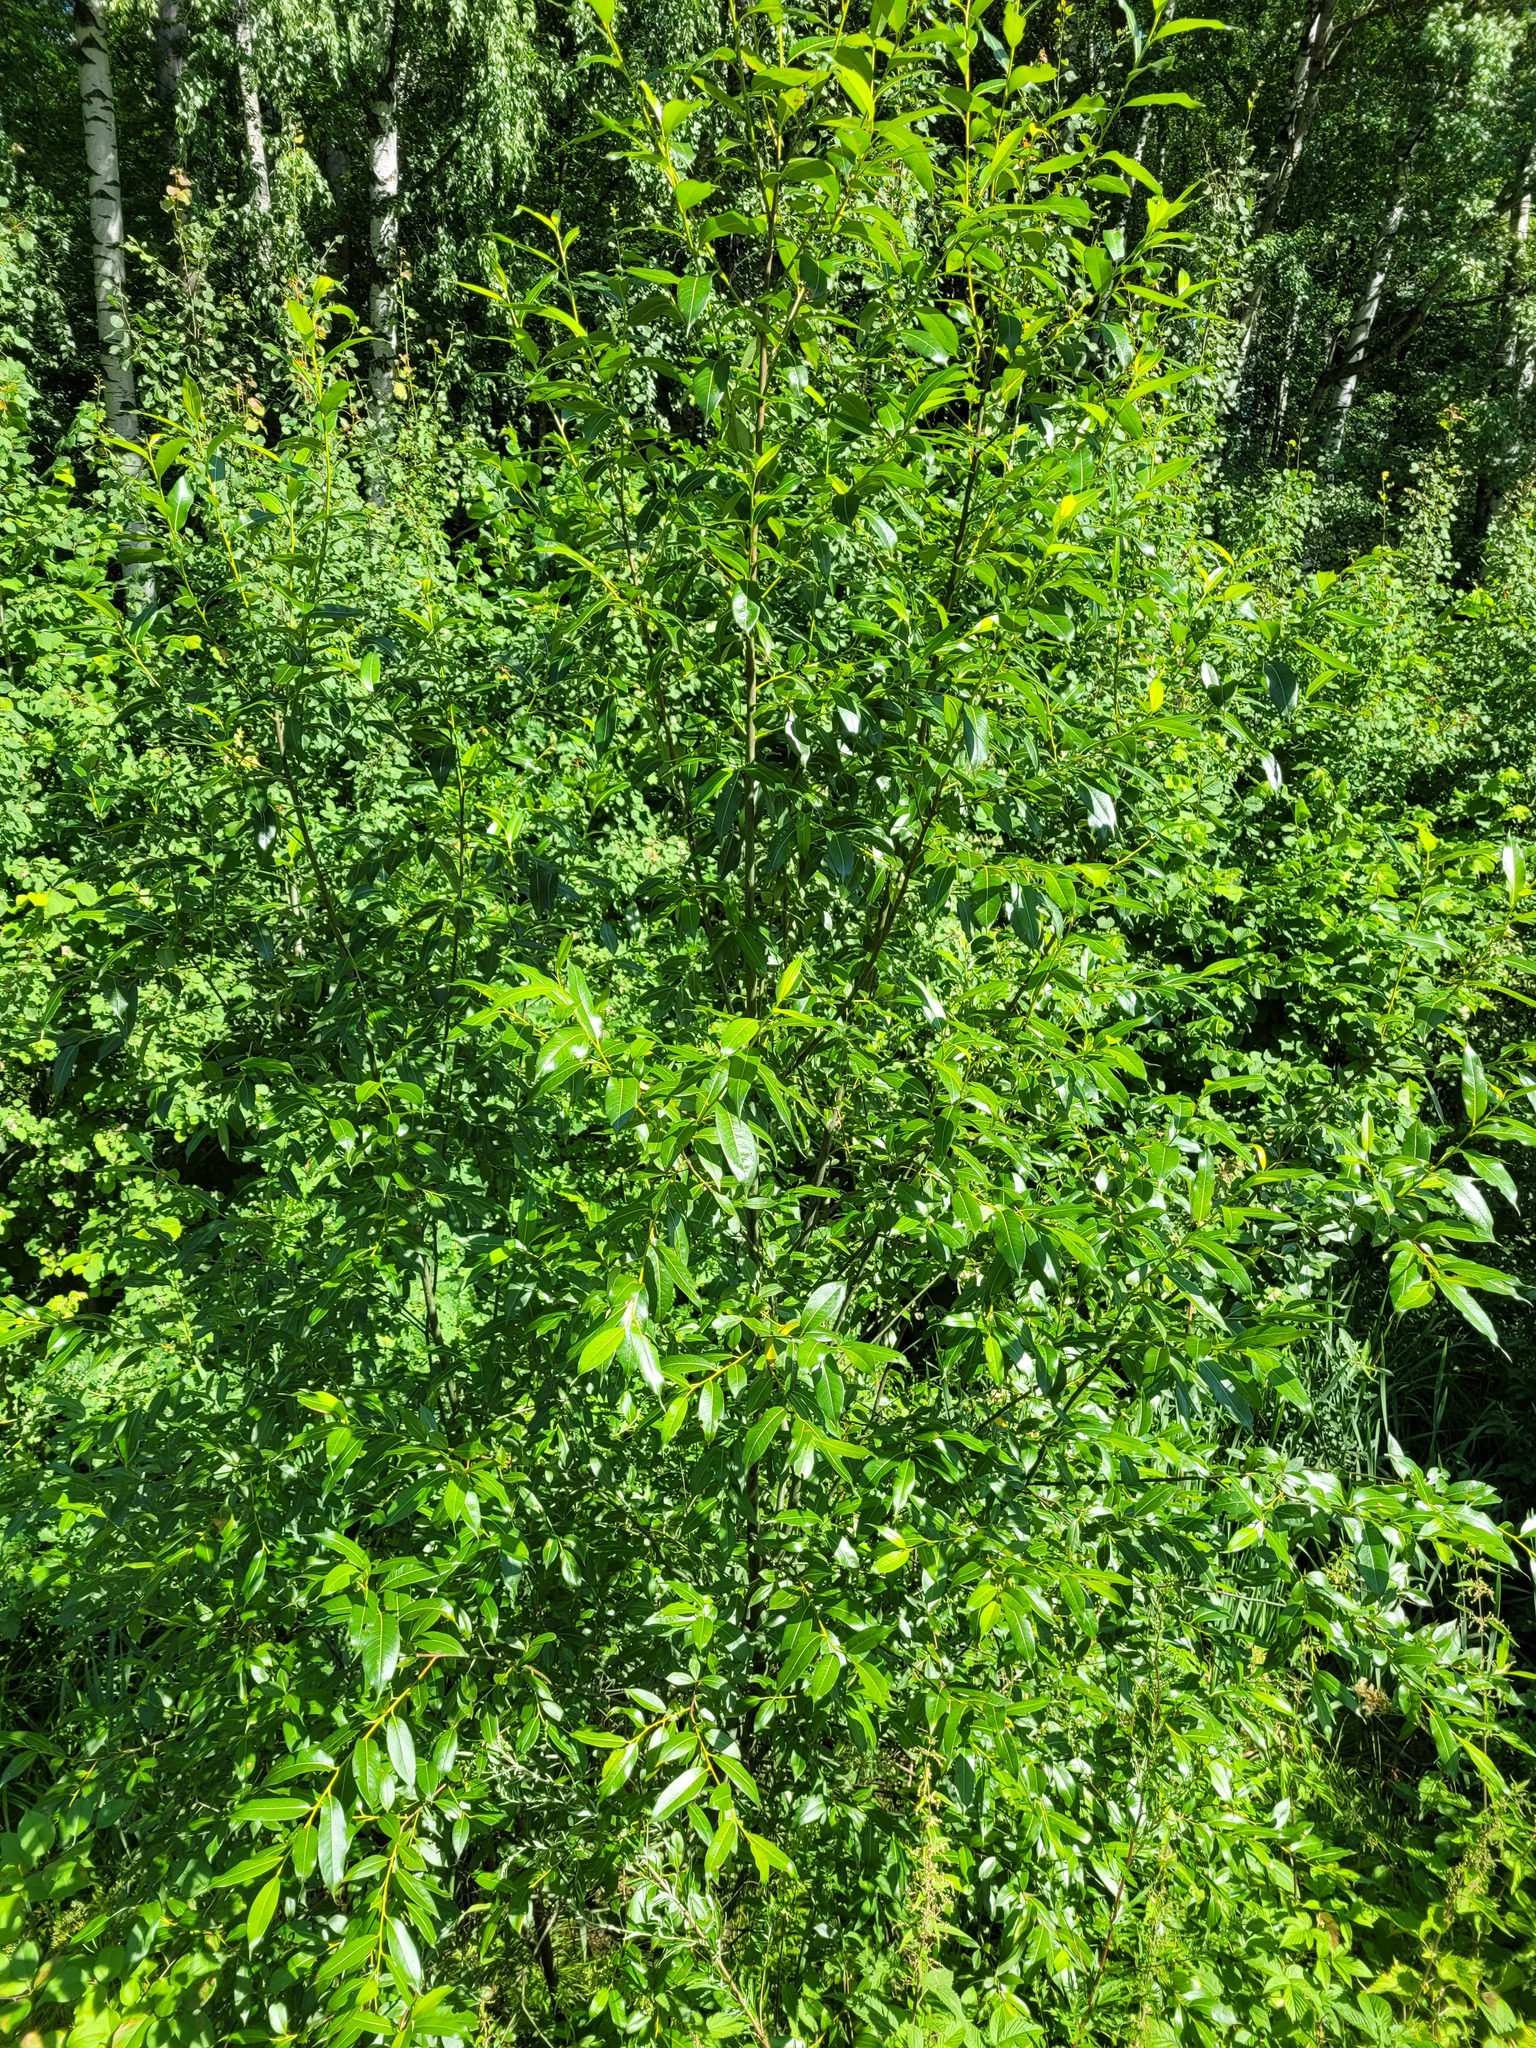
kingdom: Plantae
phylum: Tracheophyta
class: Magnoliopsida
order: Malpighiales
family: Salicaceae
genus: Salix
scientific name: Salix pentandra
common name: Bay willow
